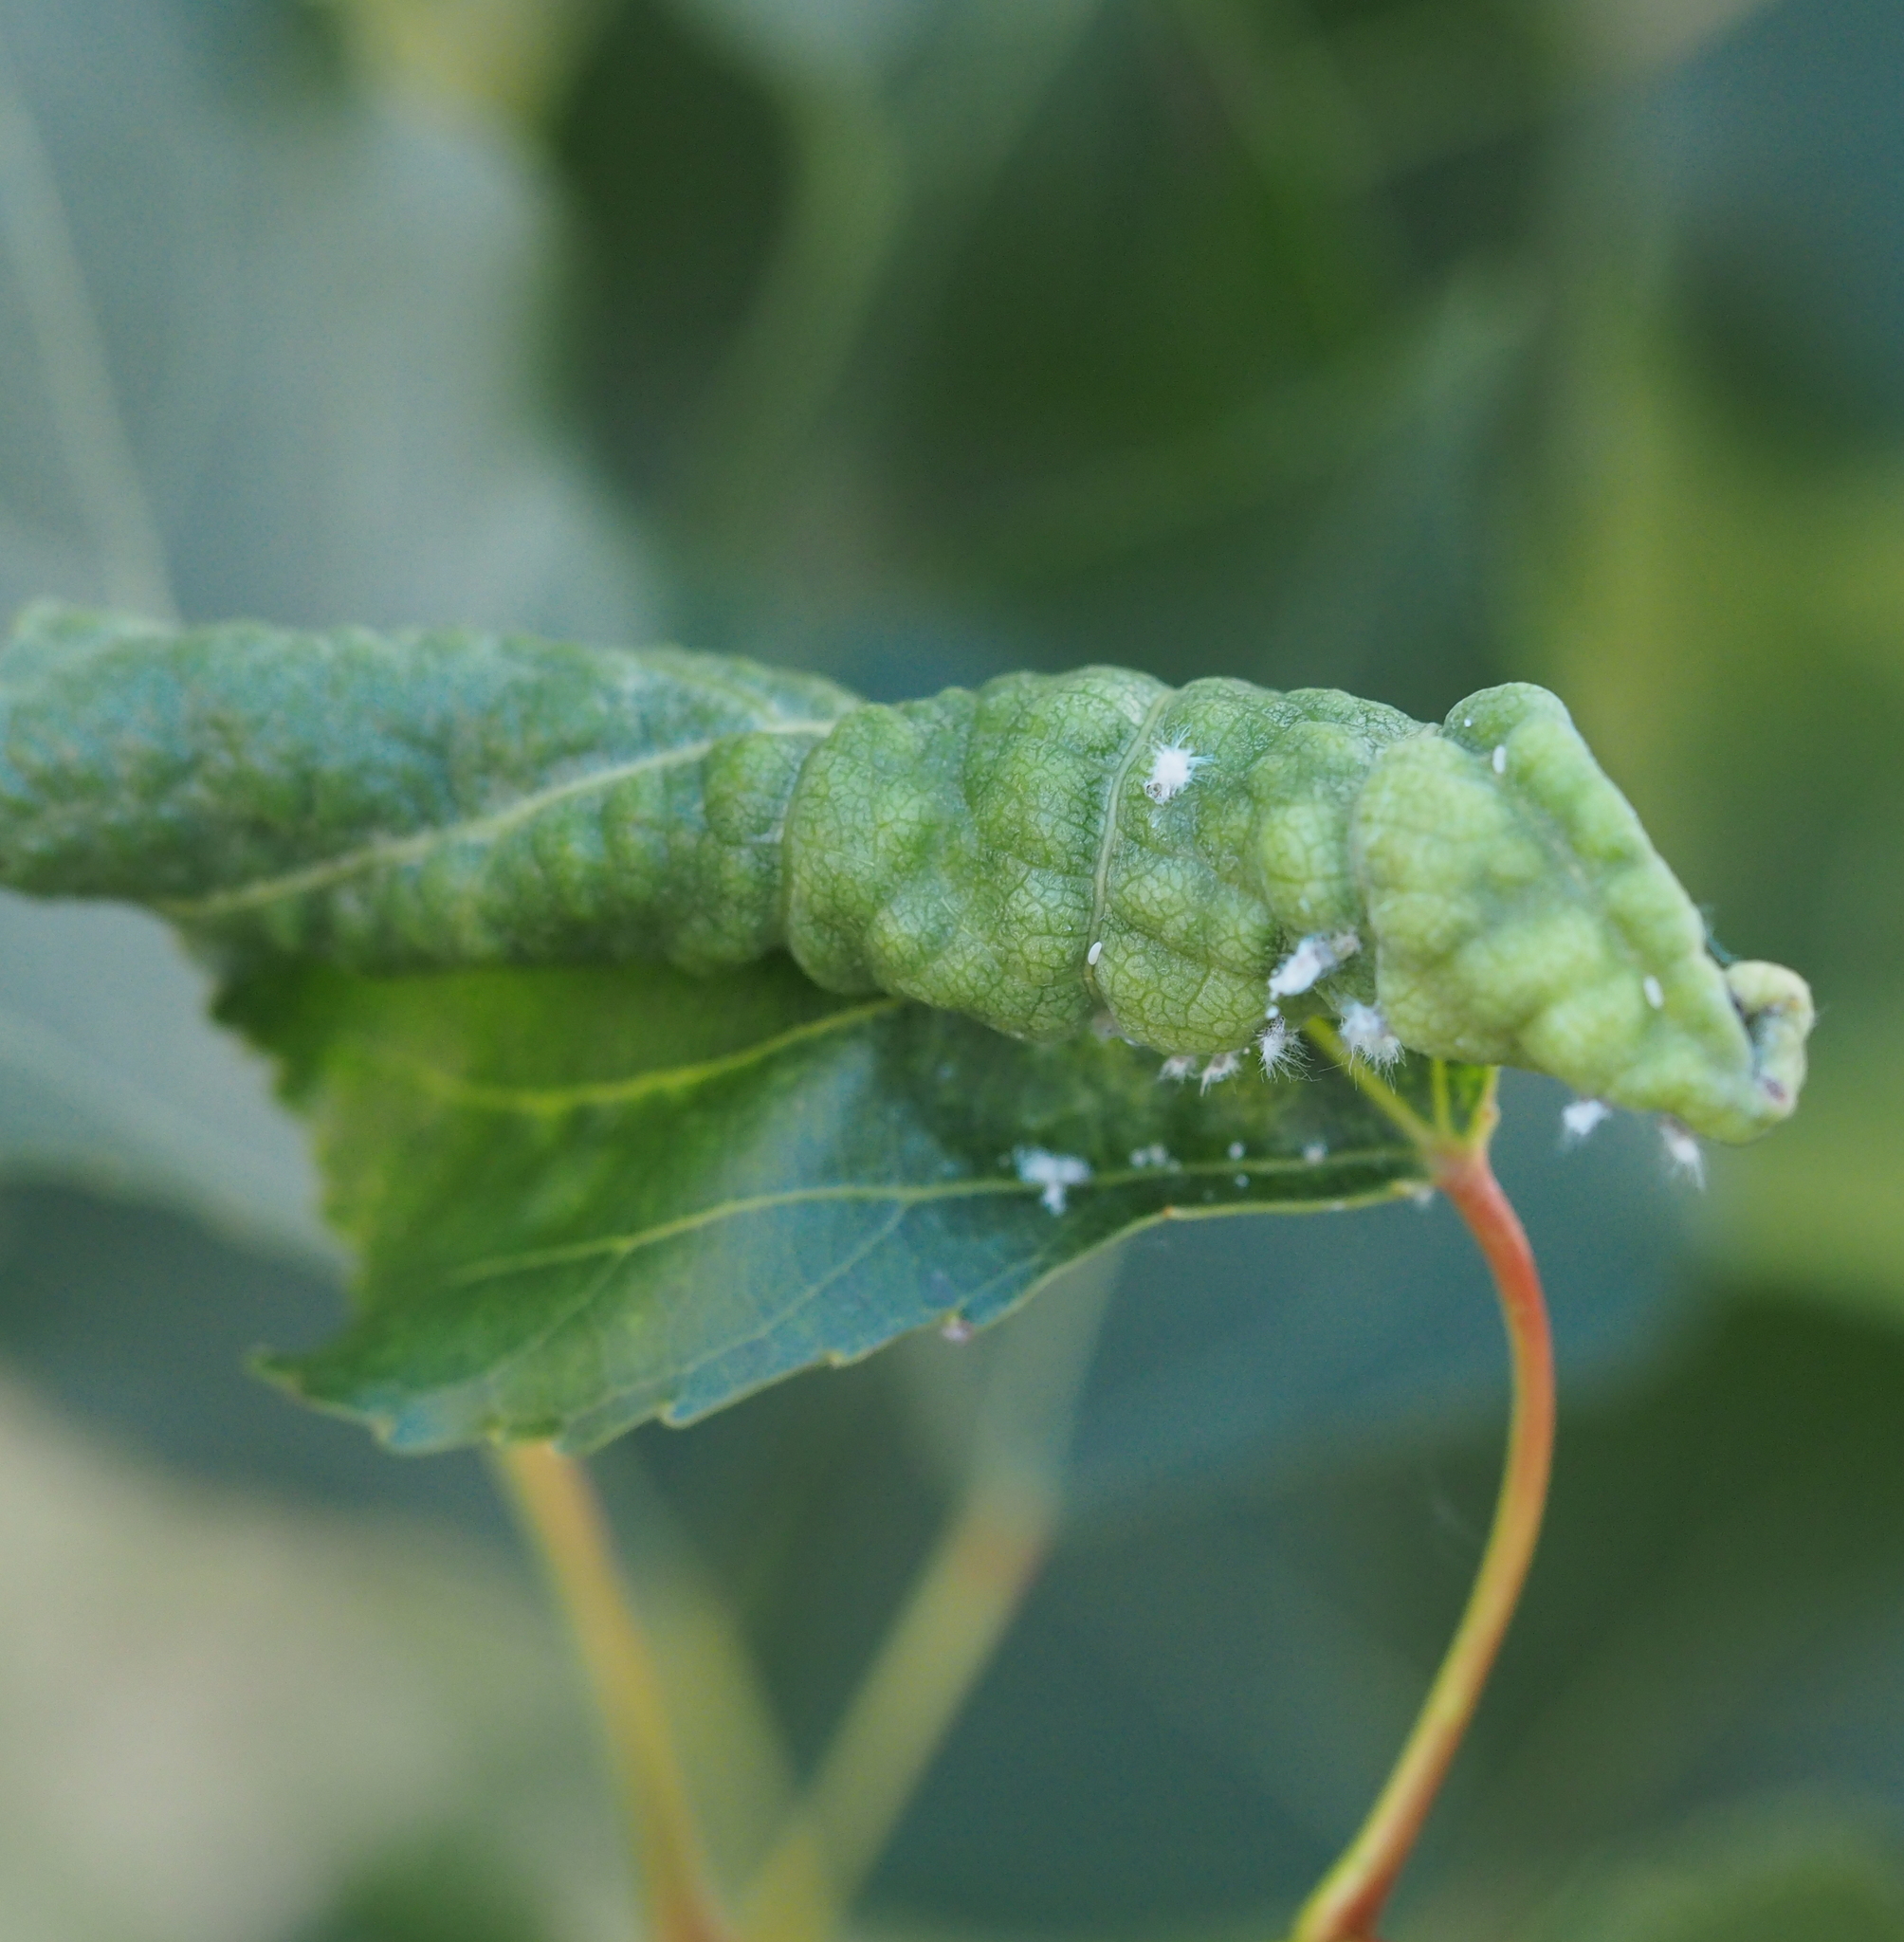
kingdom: Animalia
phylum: Arthropoda
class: Insecta
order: Hemiptera
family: Liviidae
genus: Camarotoscena
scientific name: Camarotoscena speciosa
